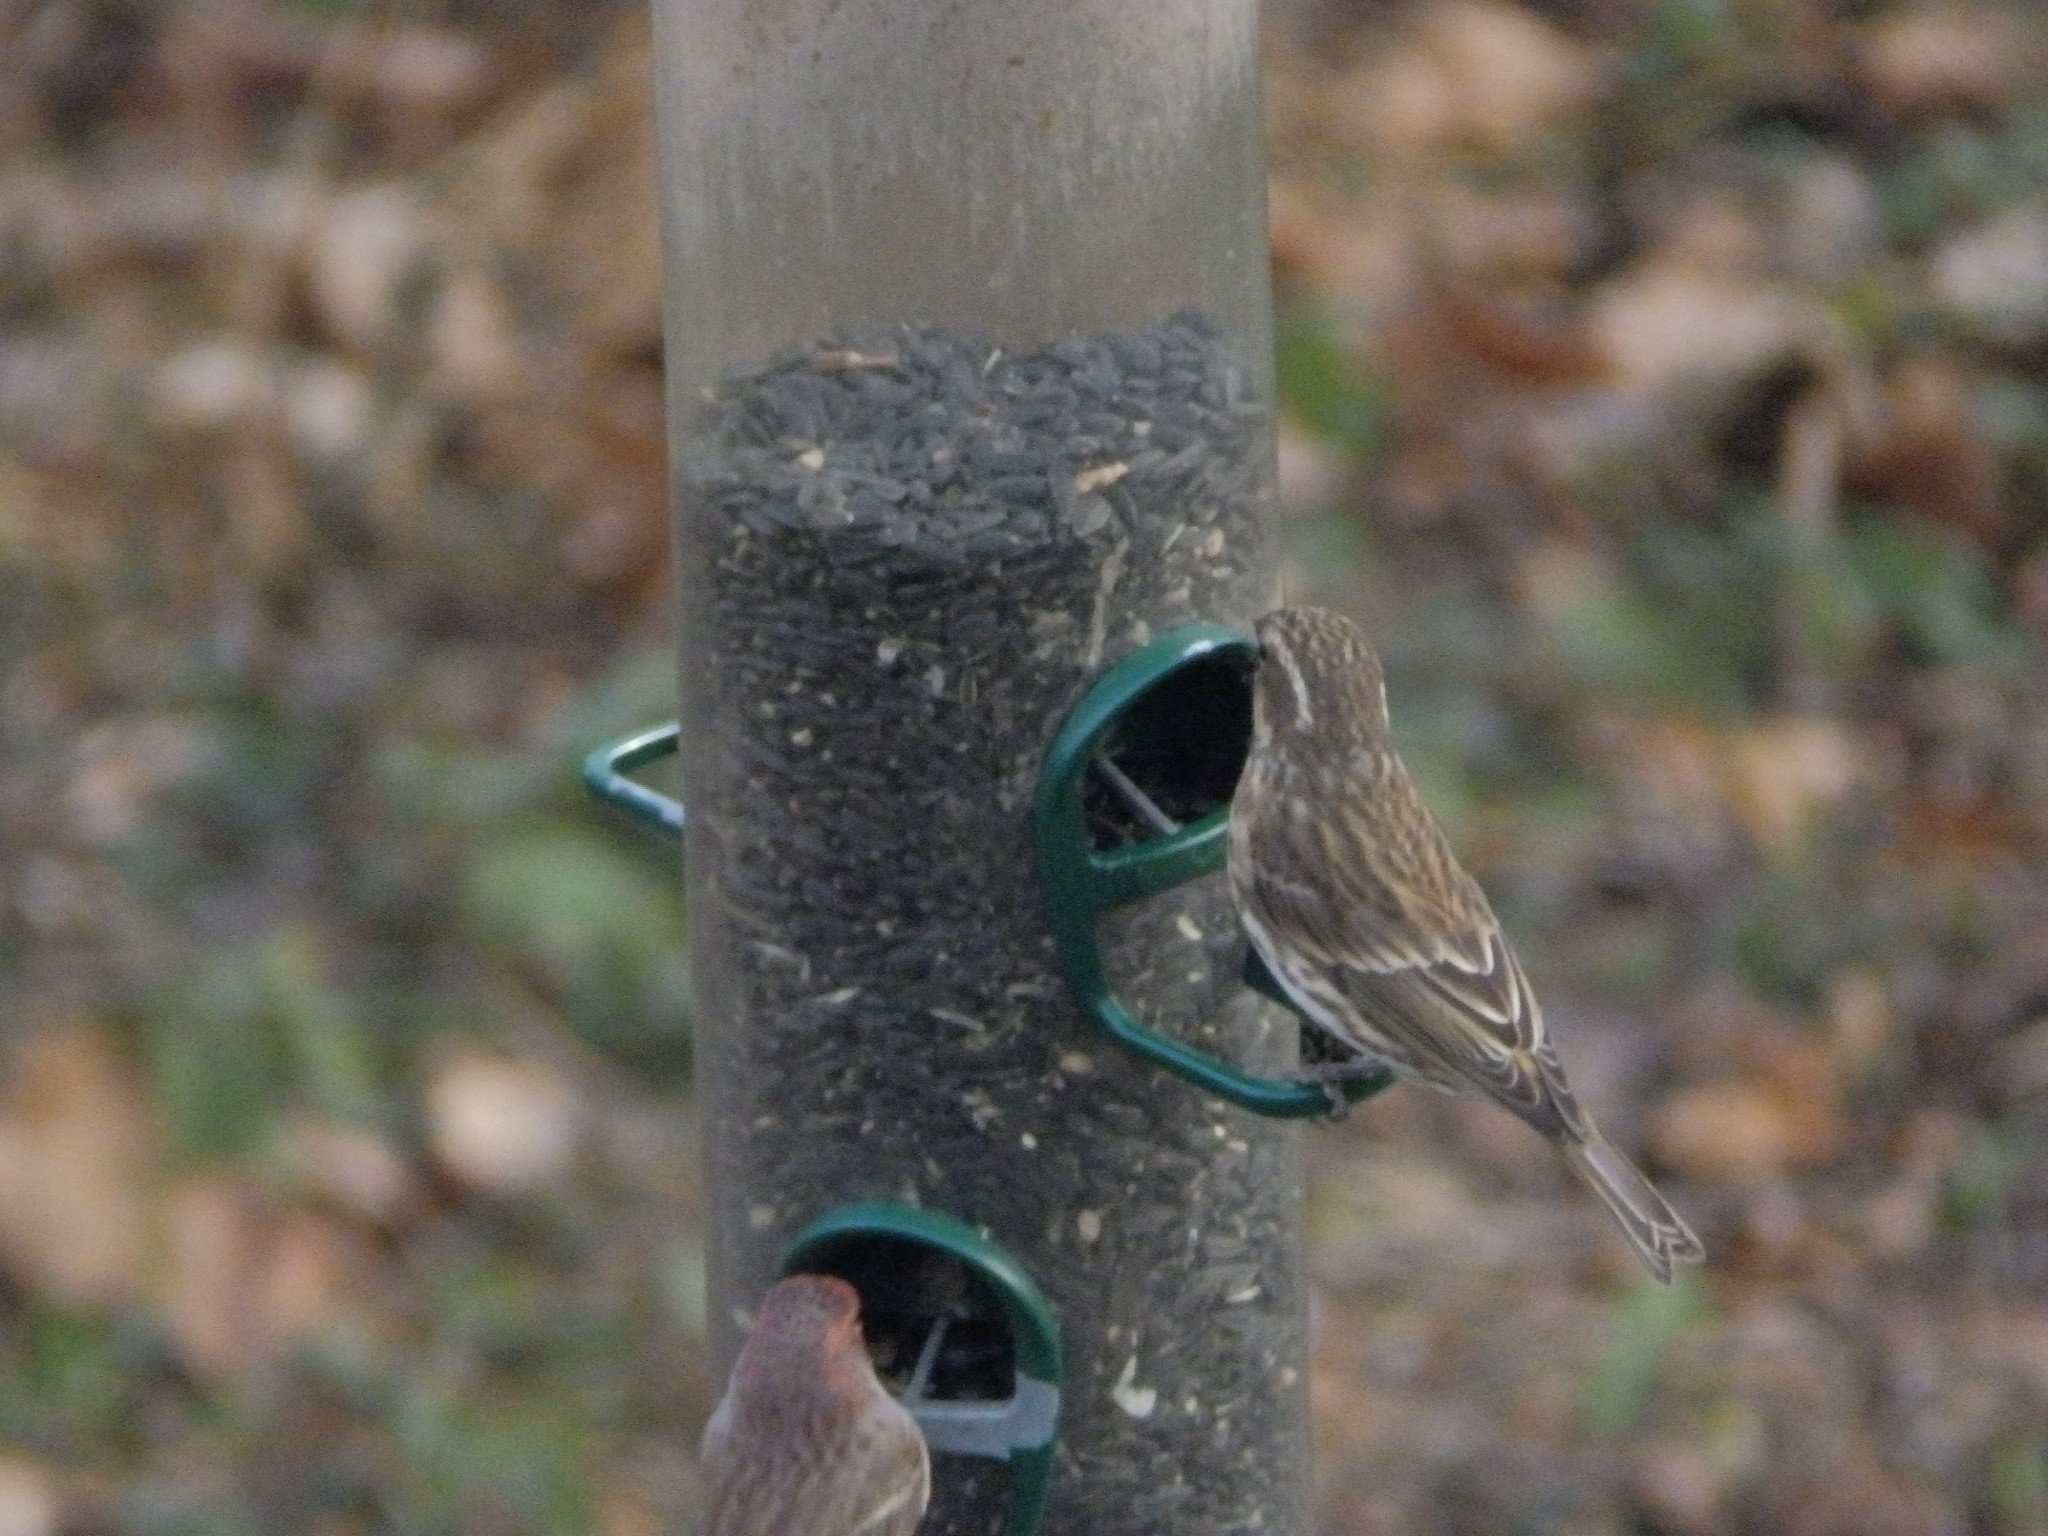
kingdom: Animalia
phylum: Chordata
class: Aves
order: Passeriformes
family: Fringillidae
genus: Haemorhous
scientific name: Haemorhous purpureus
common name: Purple finch
